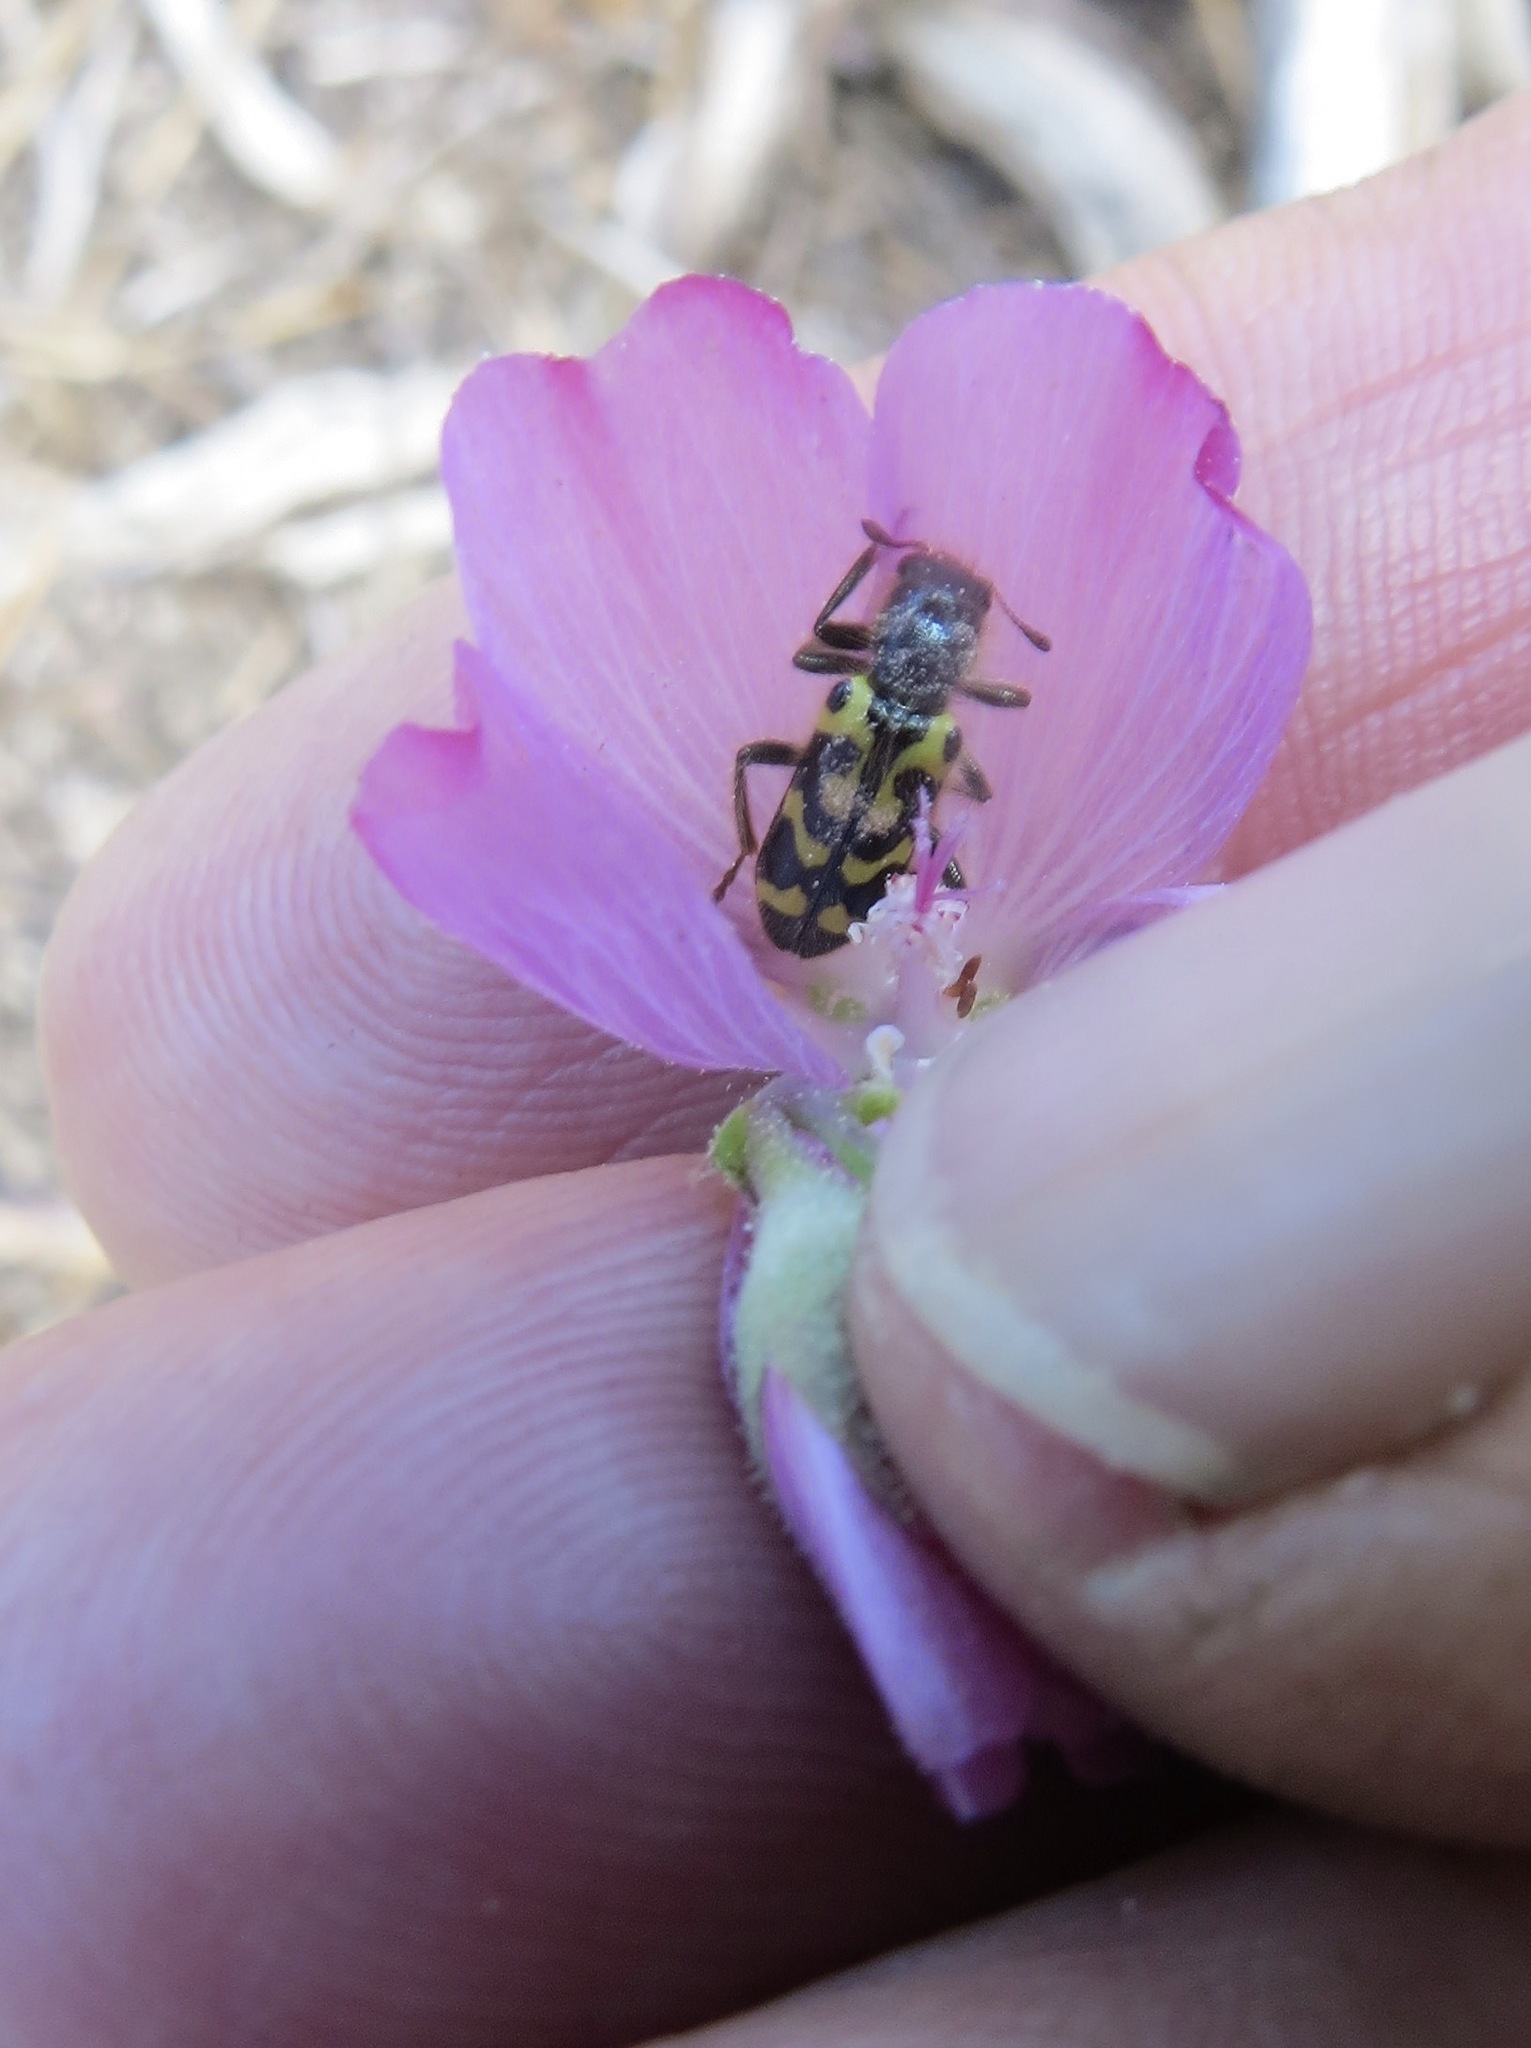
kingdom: Animalia
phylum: Arthropoda
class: Insecta
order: Coleoptera
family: Cleridae
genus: Trichodes
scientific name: Trichodes ornatus
